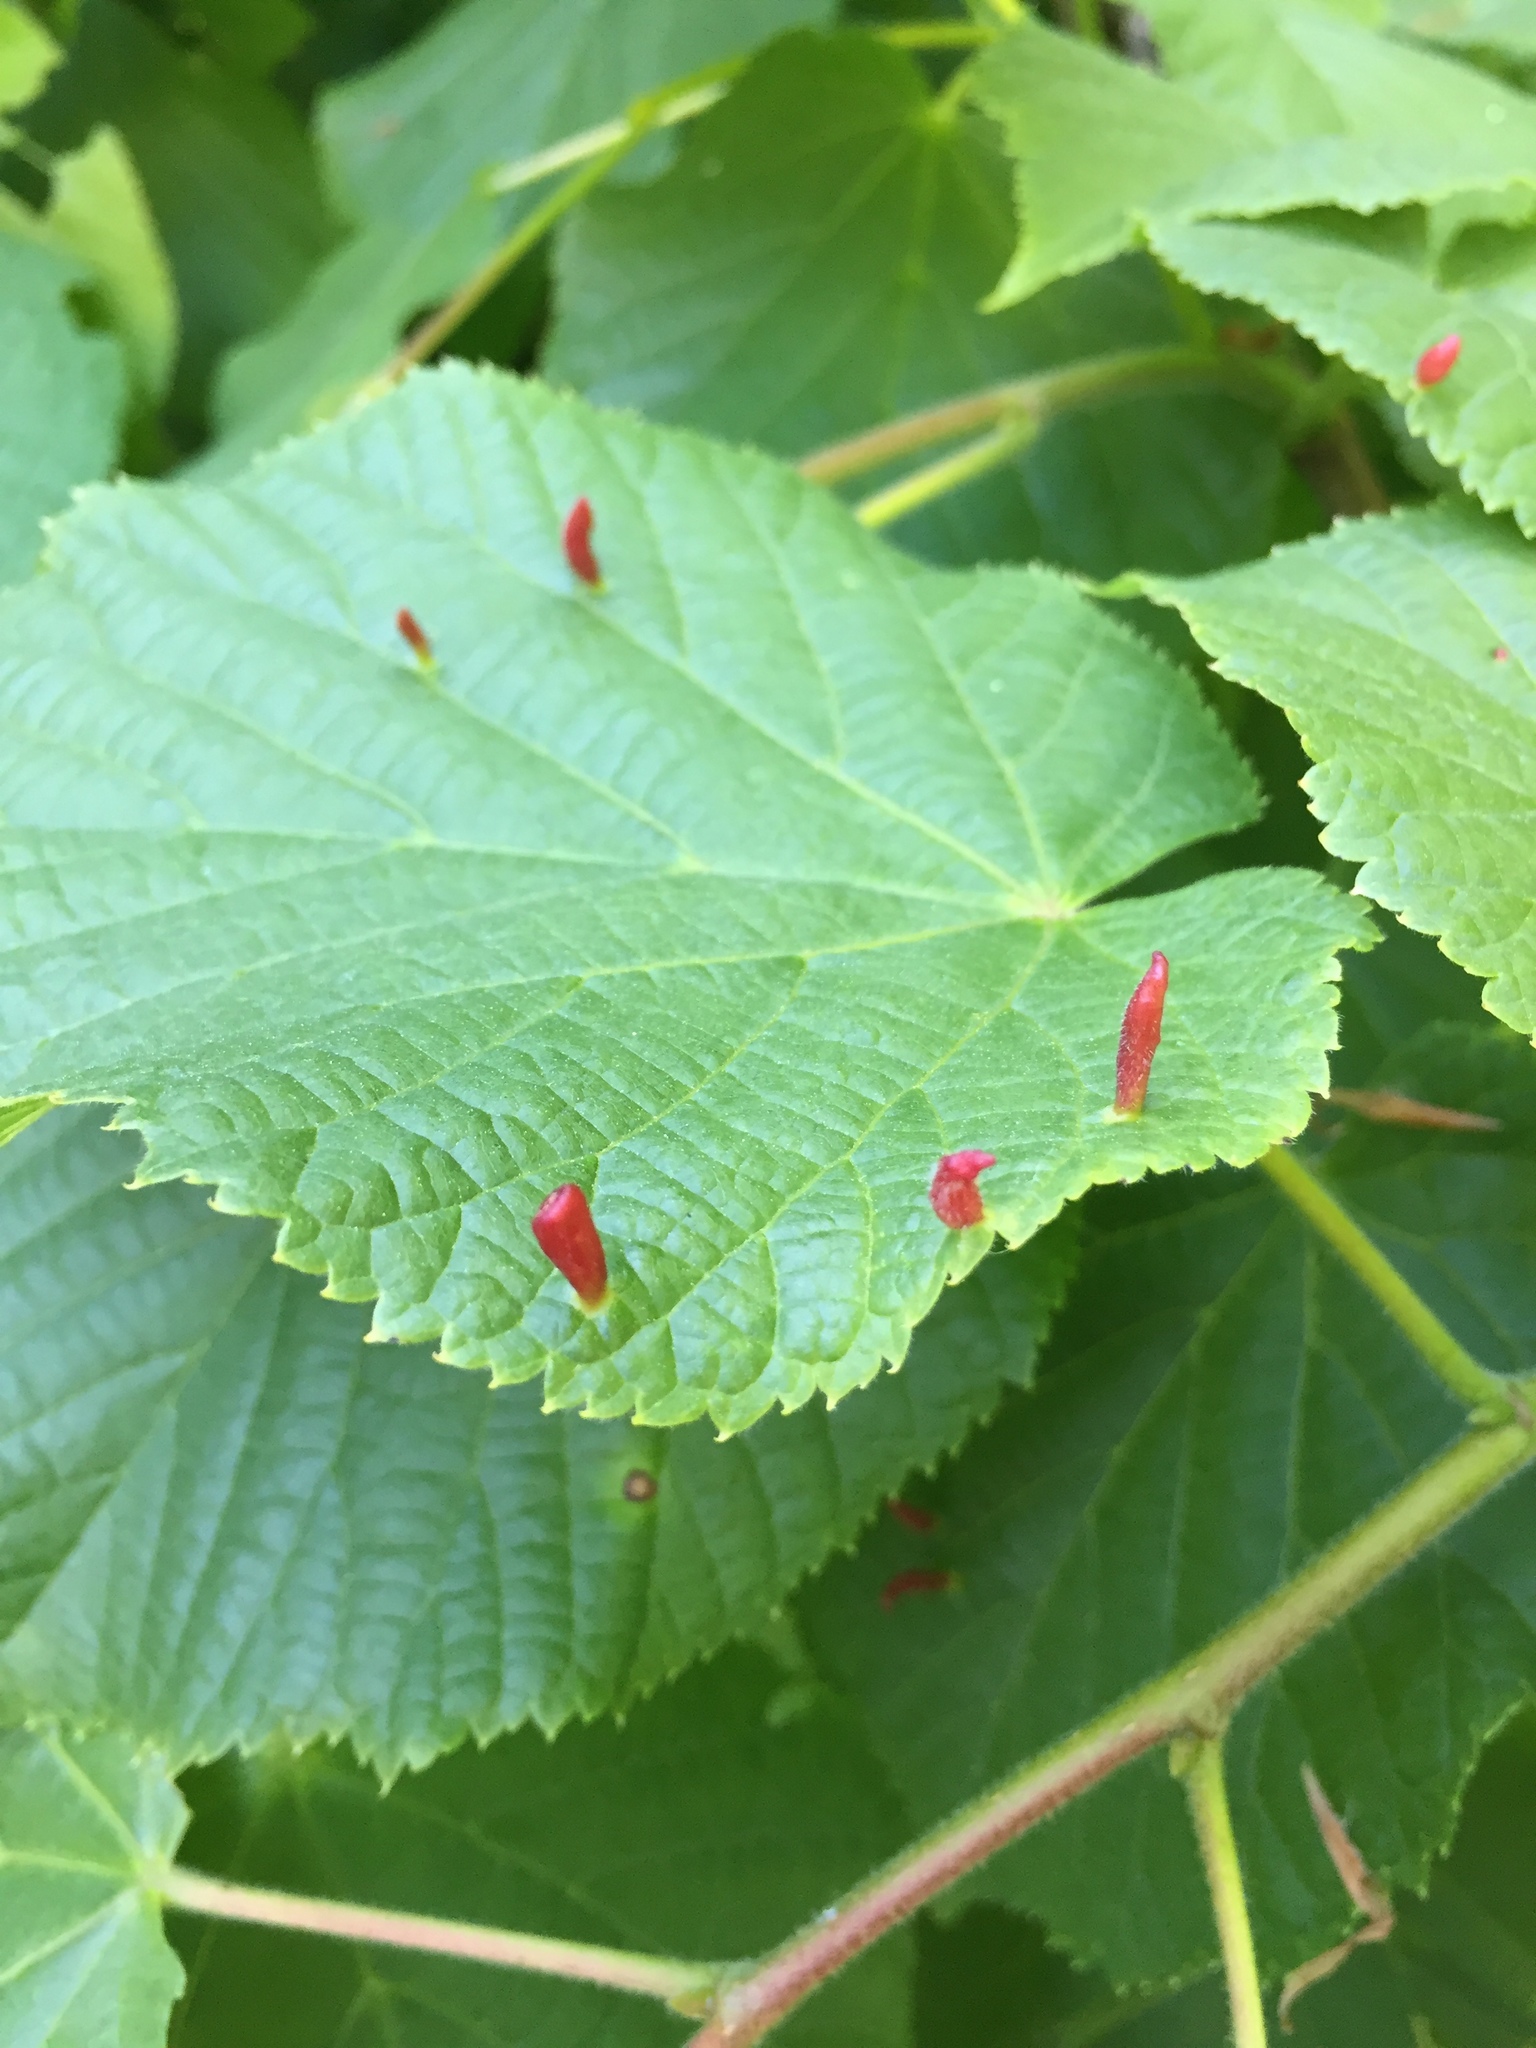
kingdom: Animalia
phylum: Arthropoda
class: Arachnida
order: Trombidiformes
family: Eriophyidae
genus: Eriophyes
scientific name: Eriophyes tiliae
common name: Red nail gall mite
